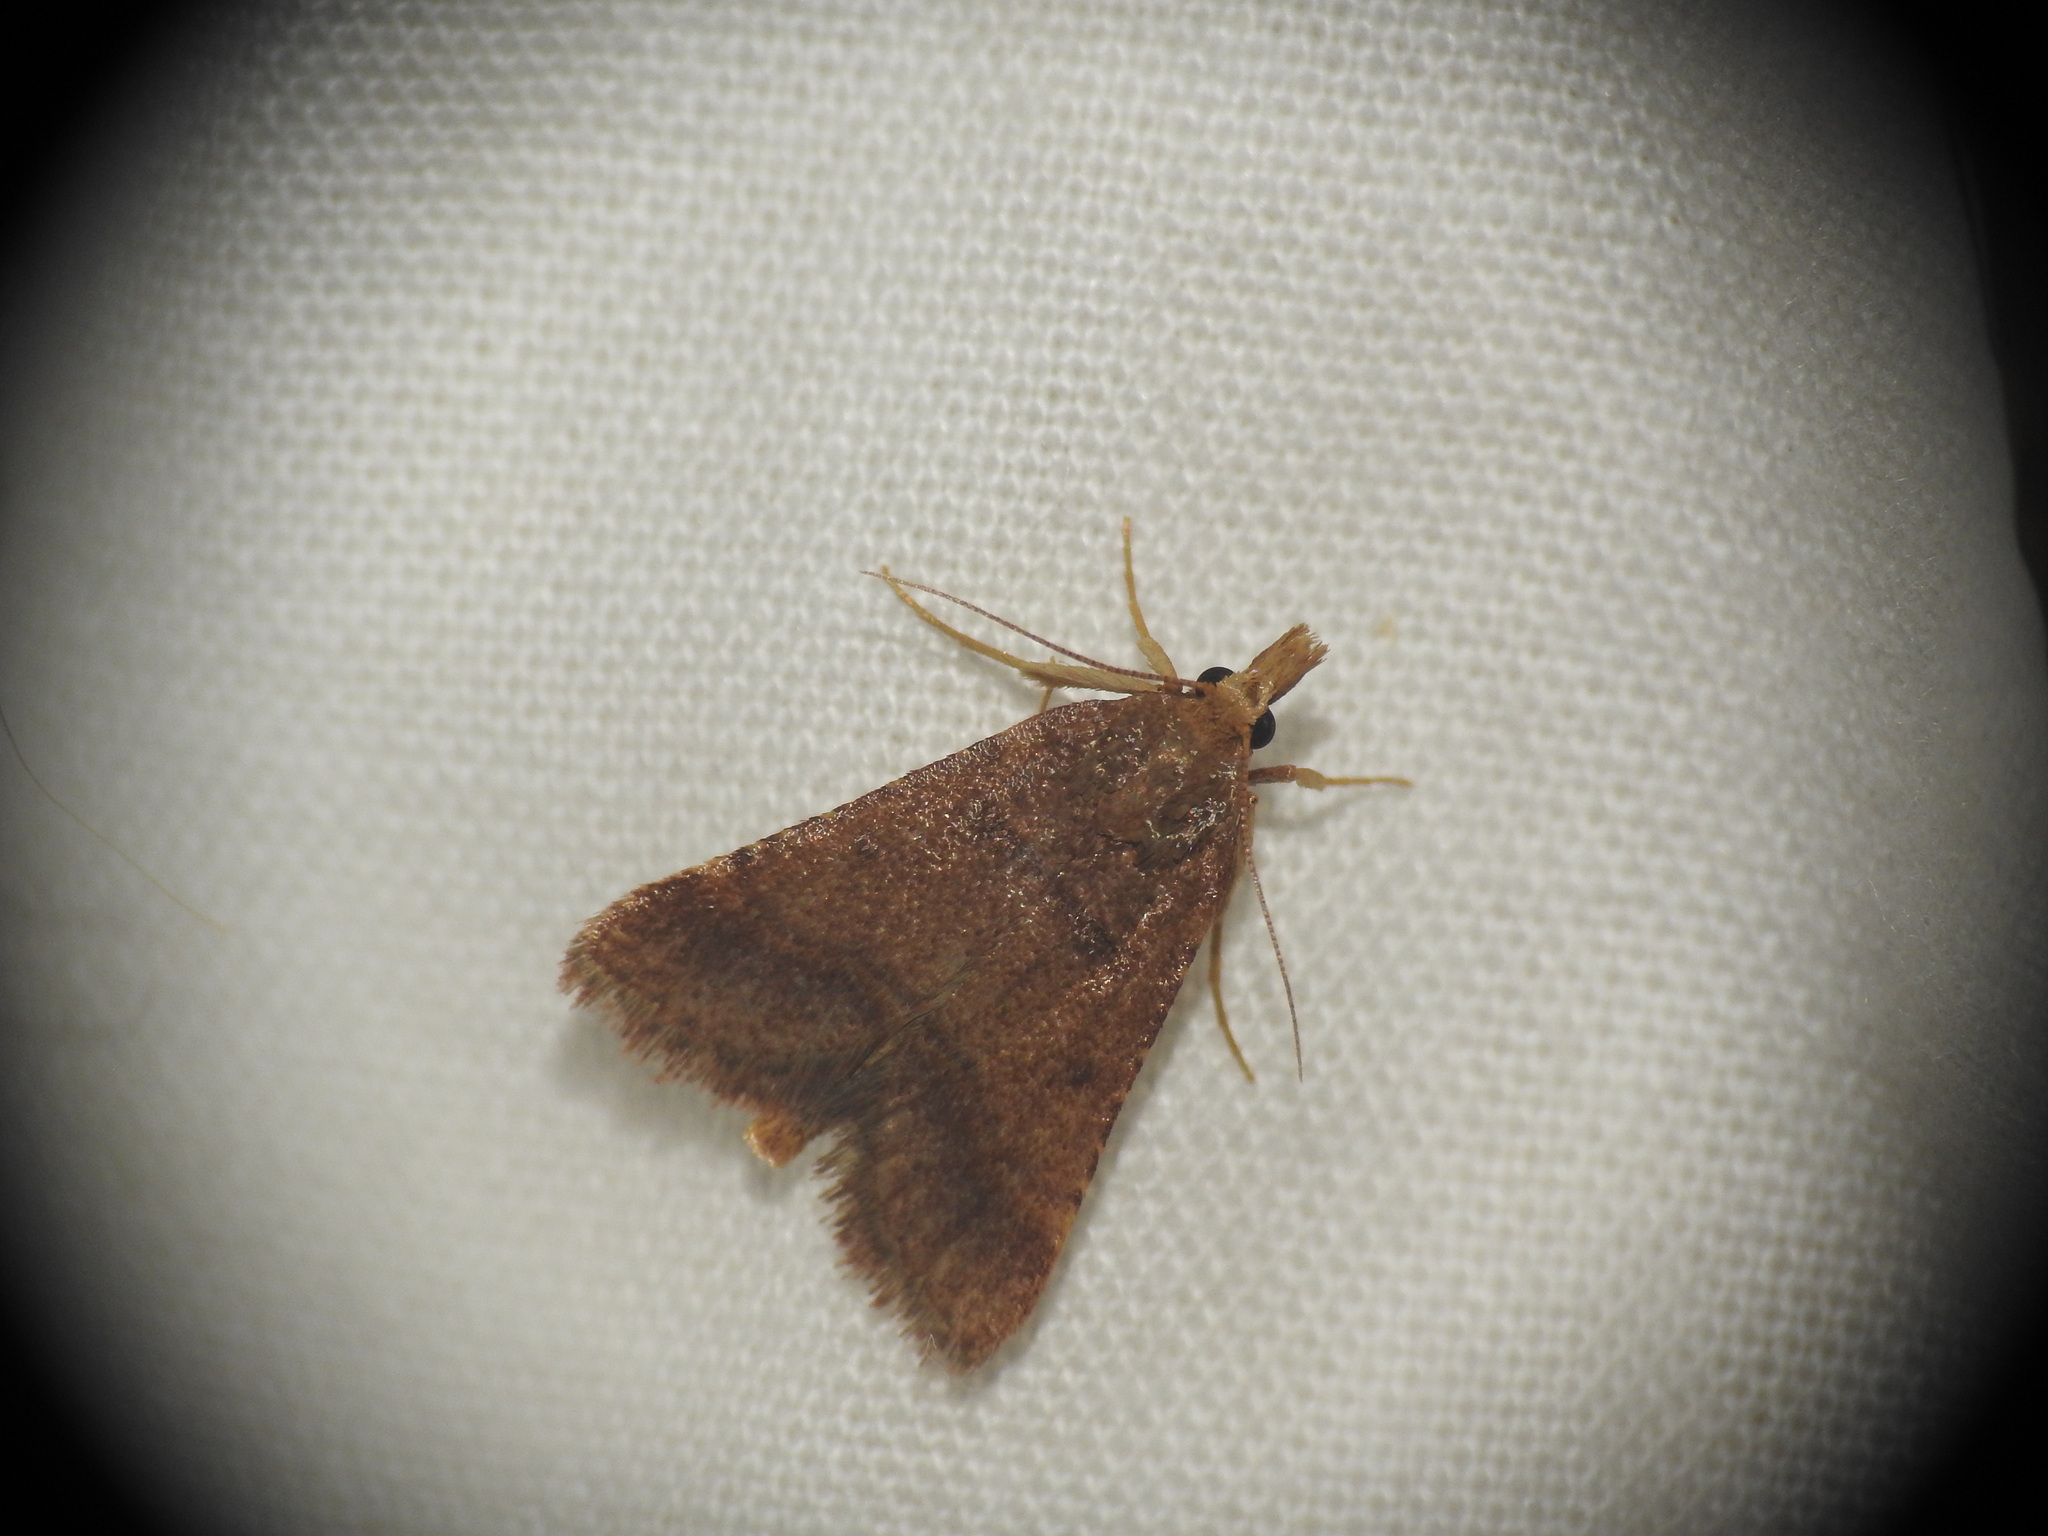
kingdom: Animalia
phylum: Arthropoda
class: Insecta
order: Lepidoptera
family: Pyralidae
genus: Stemmatophora
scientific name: Stemmatophora brunnealis
